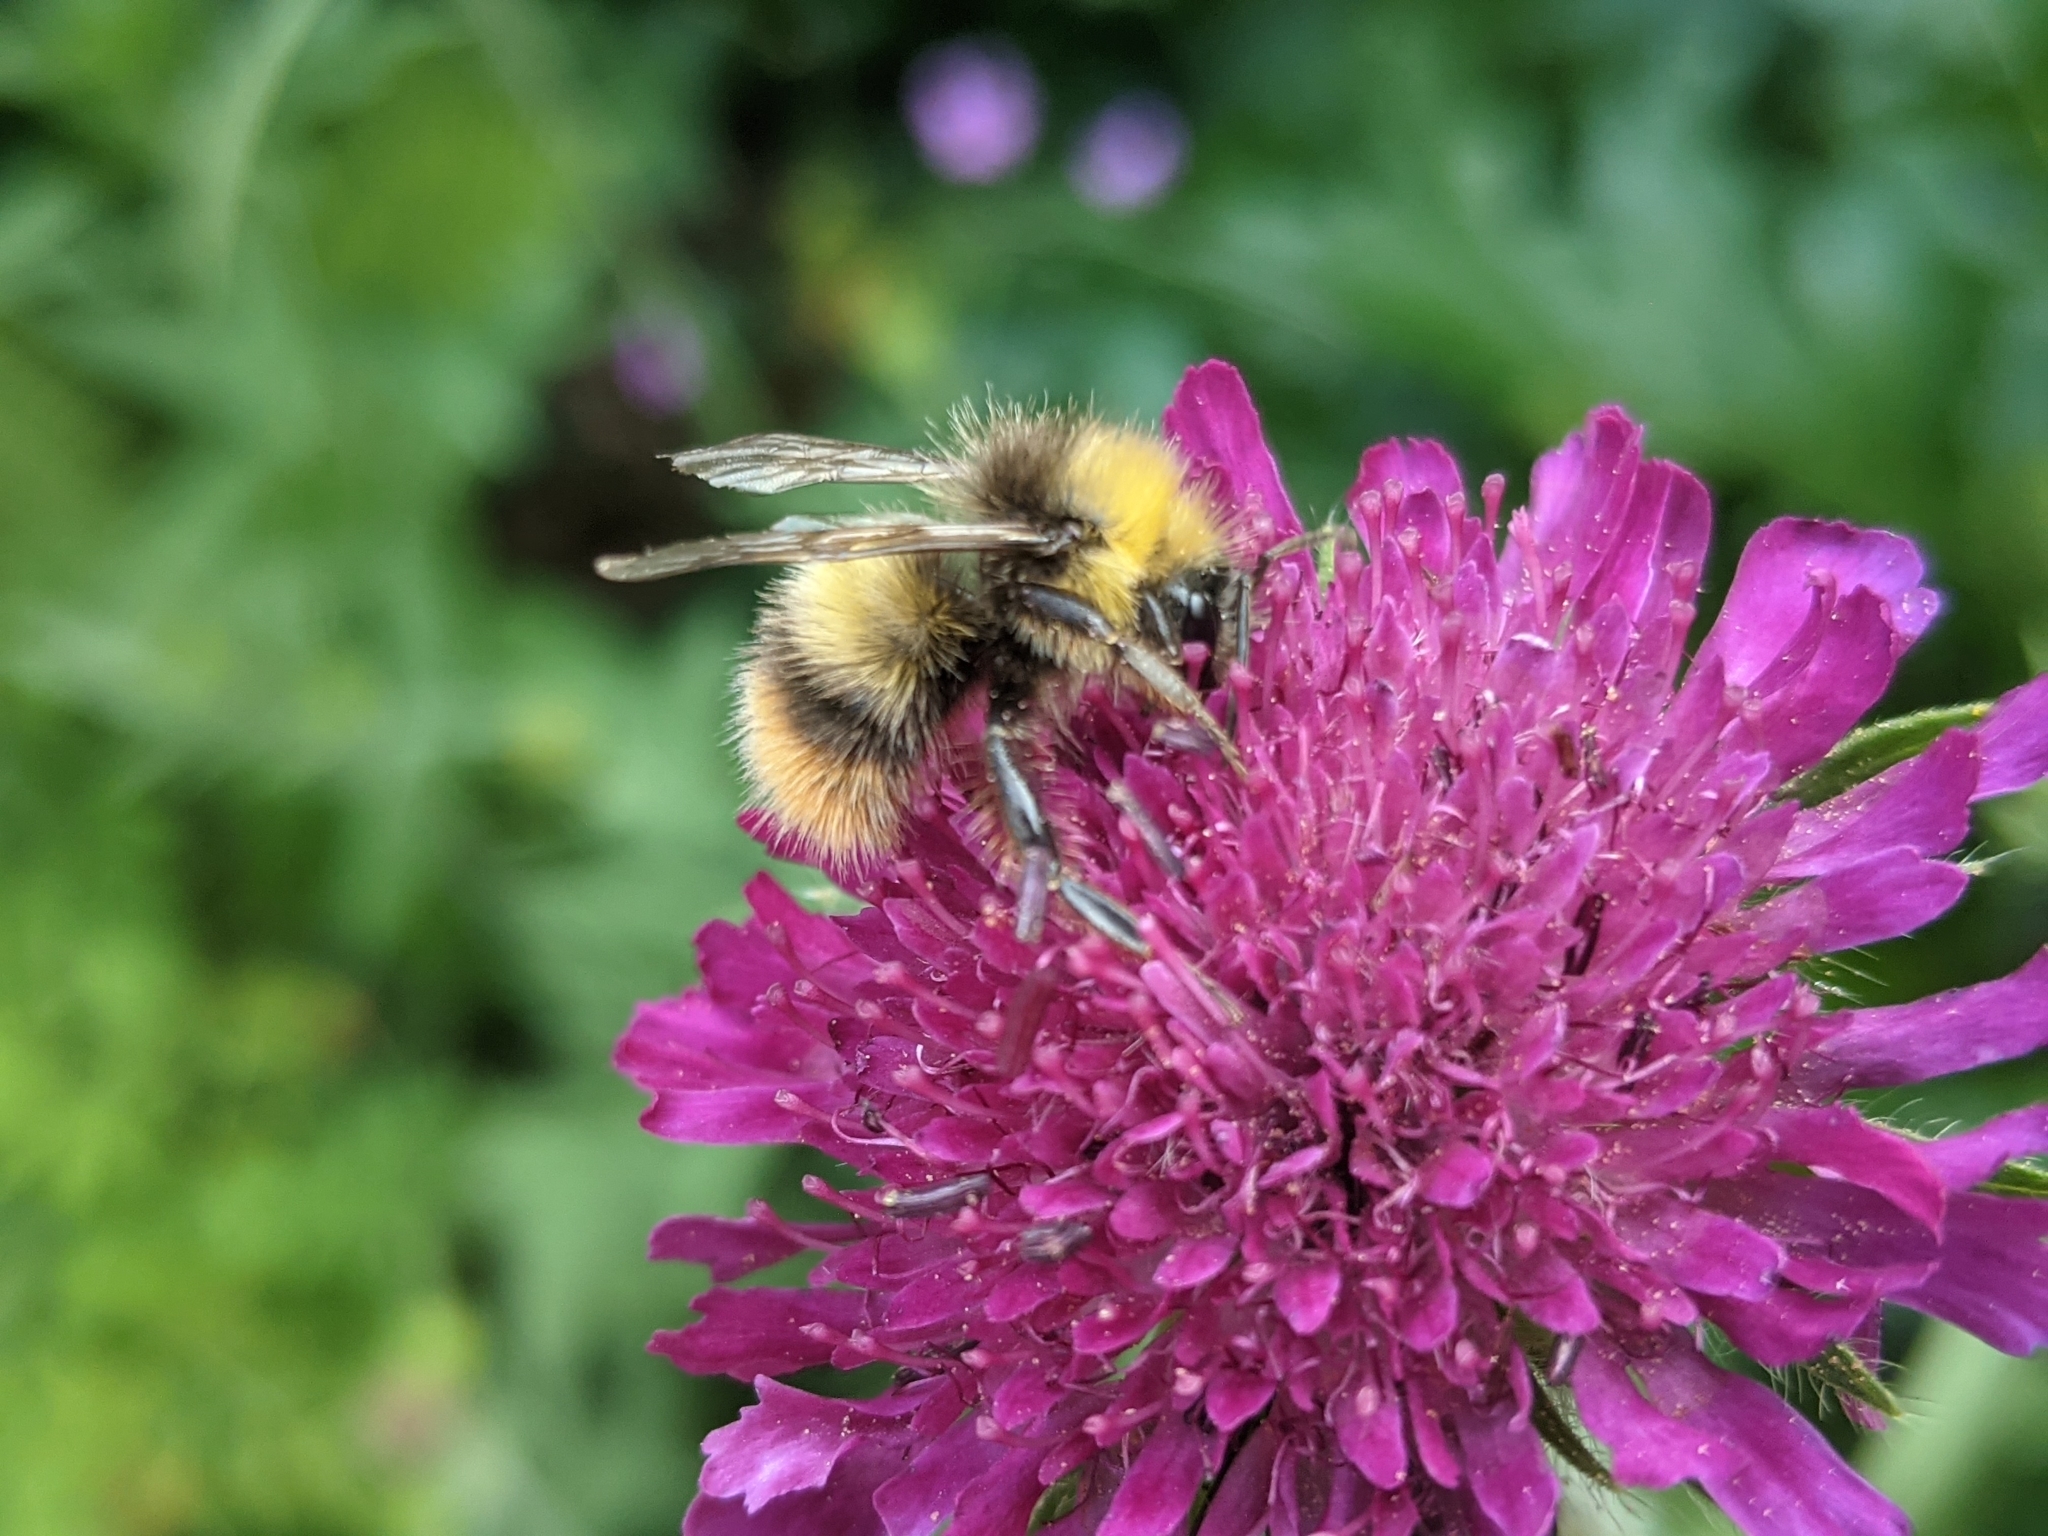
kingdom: Animalia
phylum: Arthropoda
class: Insecta
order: Hymenoptera
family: Apidae
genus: Bombus
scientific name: Bombus pratorum
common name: Early humble-bee
